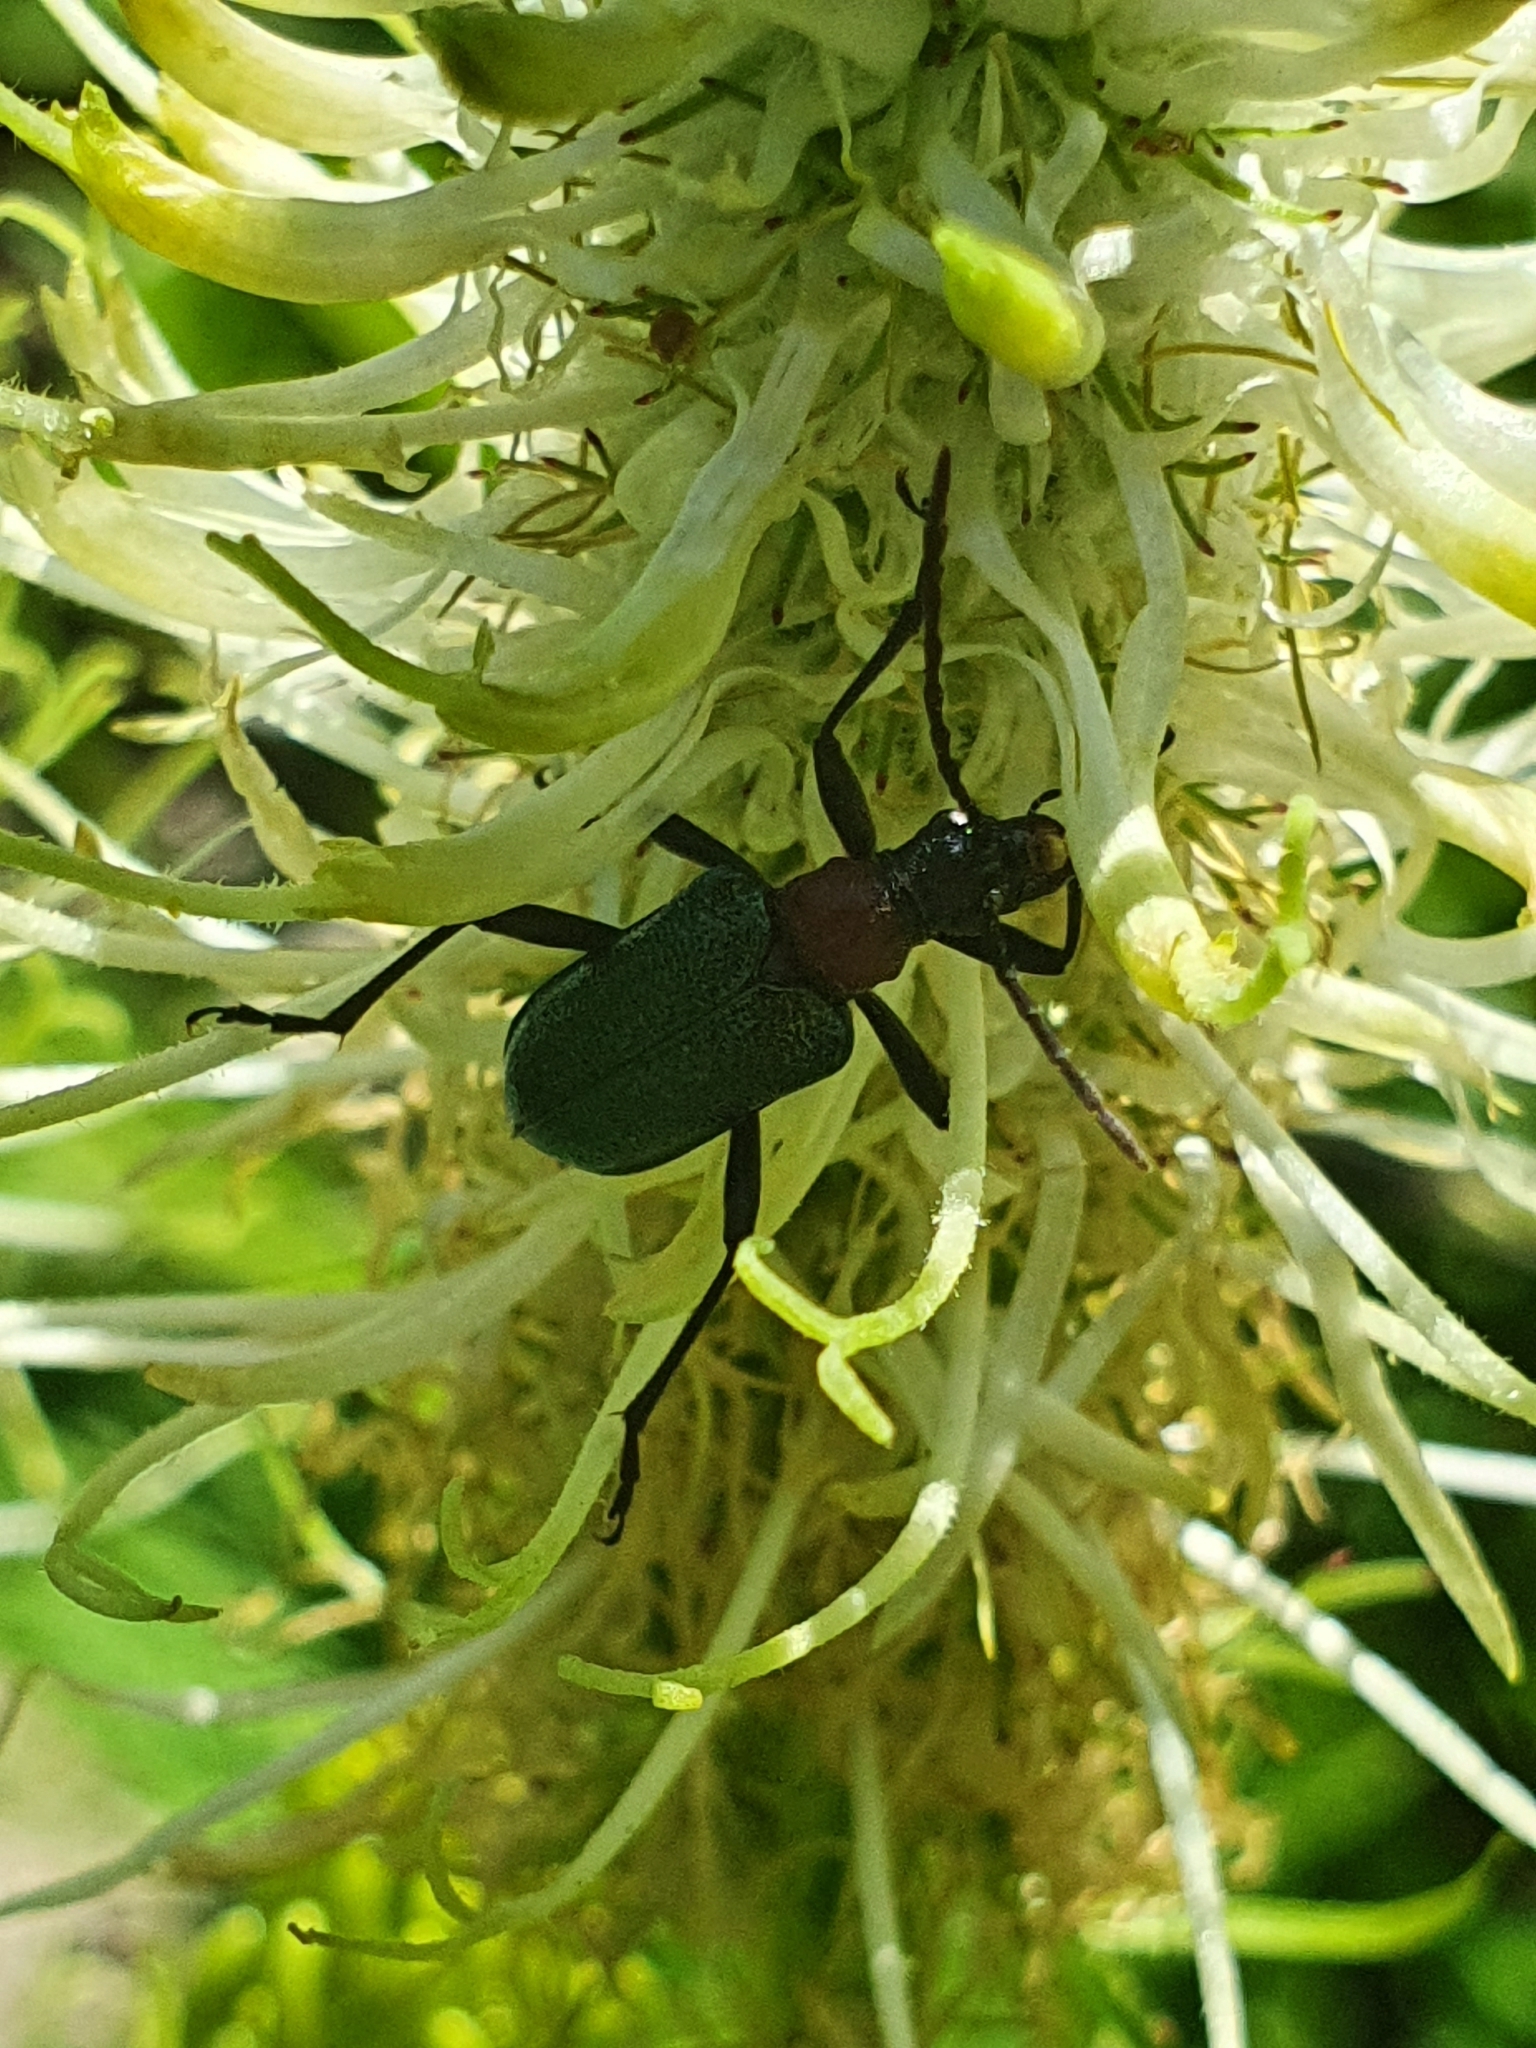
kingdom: Animalia
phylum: Arthropoda
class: Insecta
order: Coleoptera
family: Cerambycidae
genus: Gaurotes
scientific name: Gaurotes virginea
